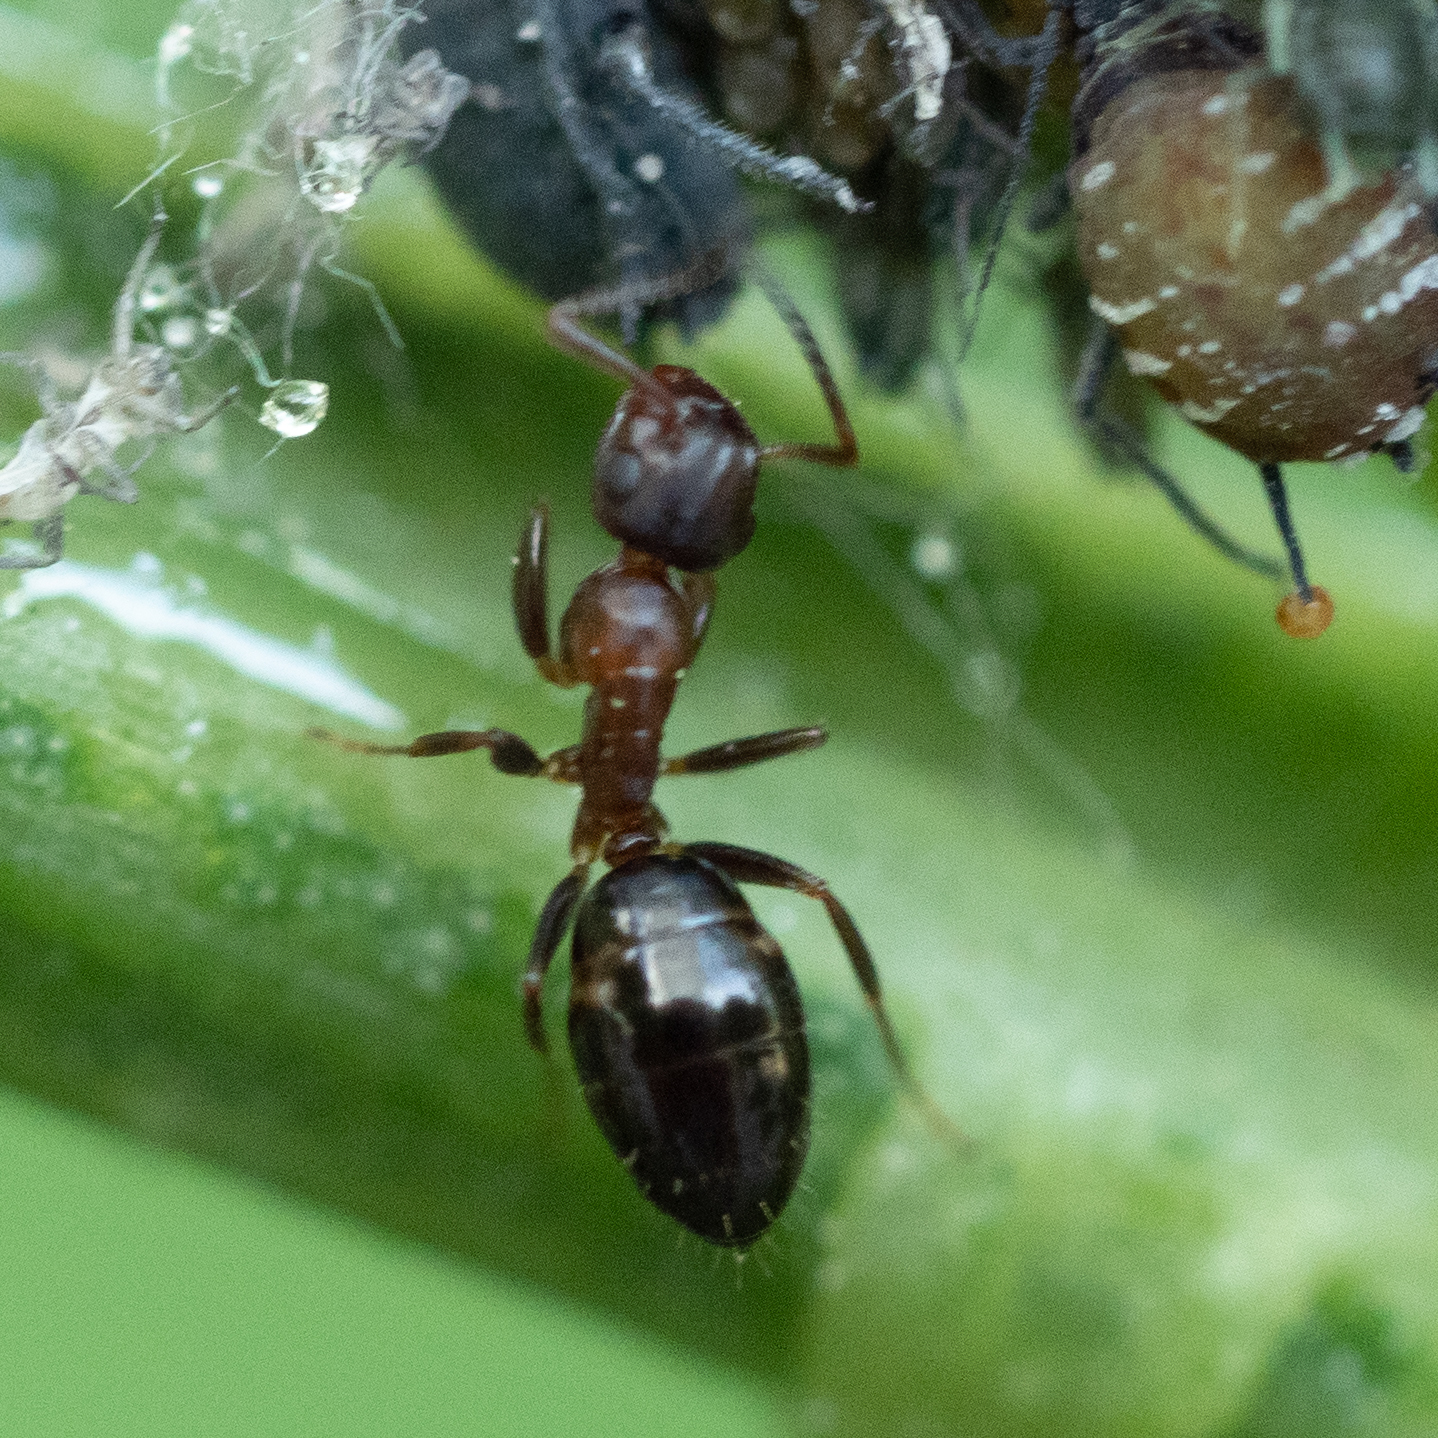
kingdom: Animalia
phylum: Arthropoda
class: Insecta
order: Hymenoptera
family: Formicidae
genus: Camponotus
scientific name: Camponotus truncatus
